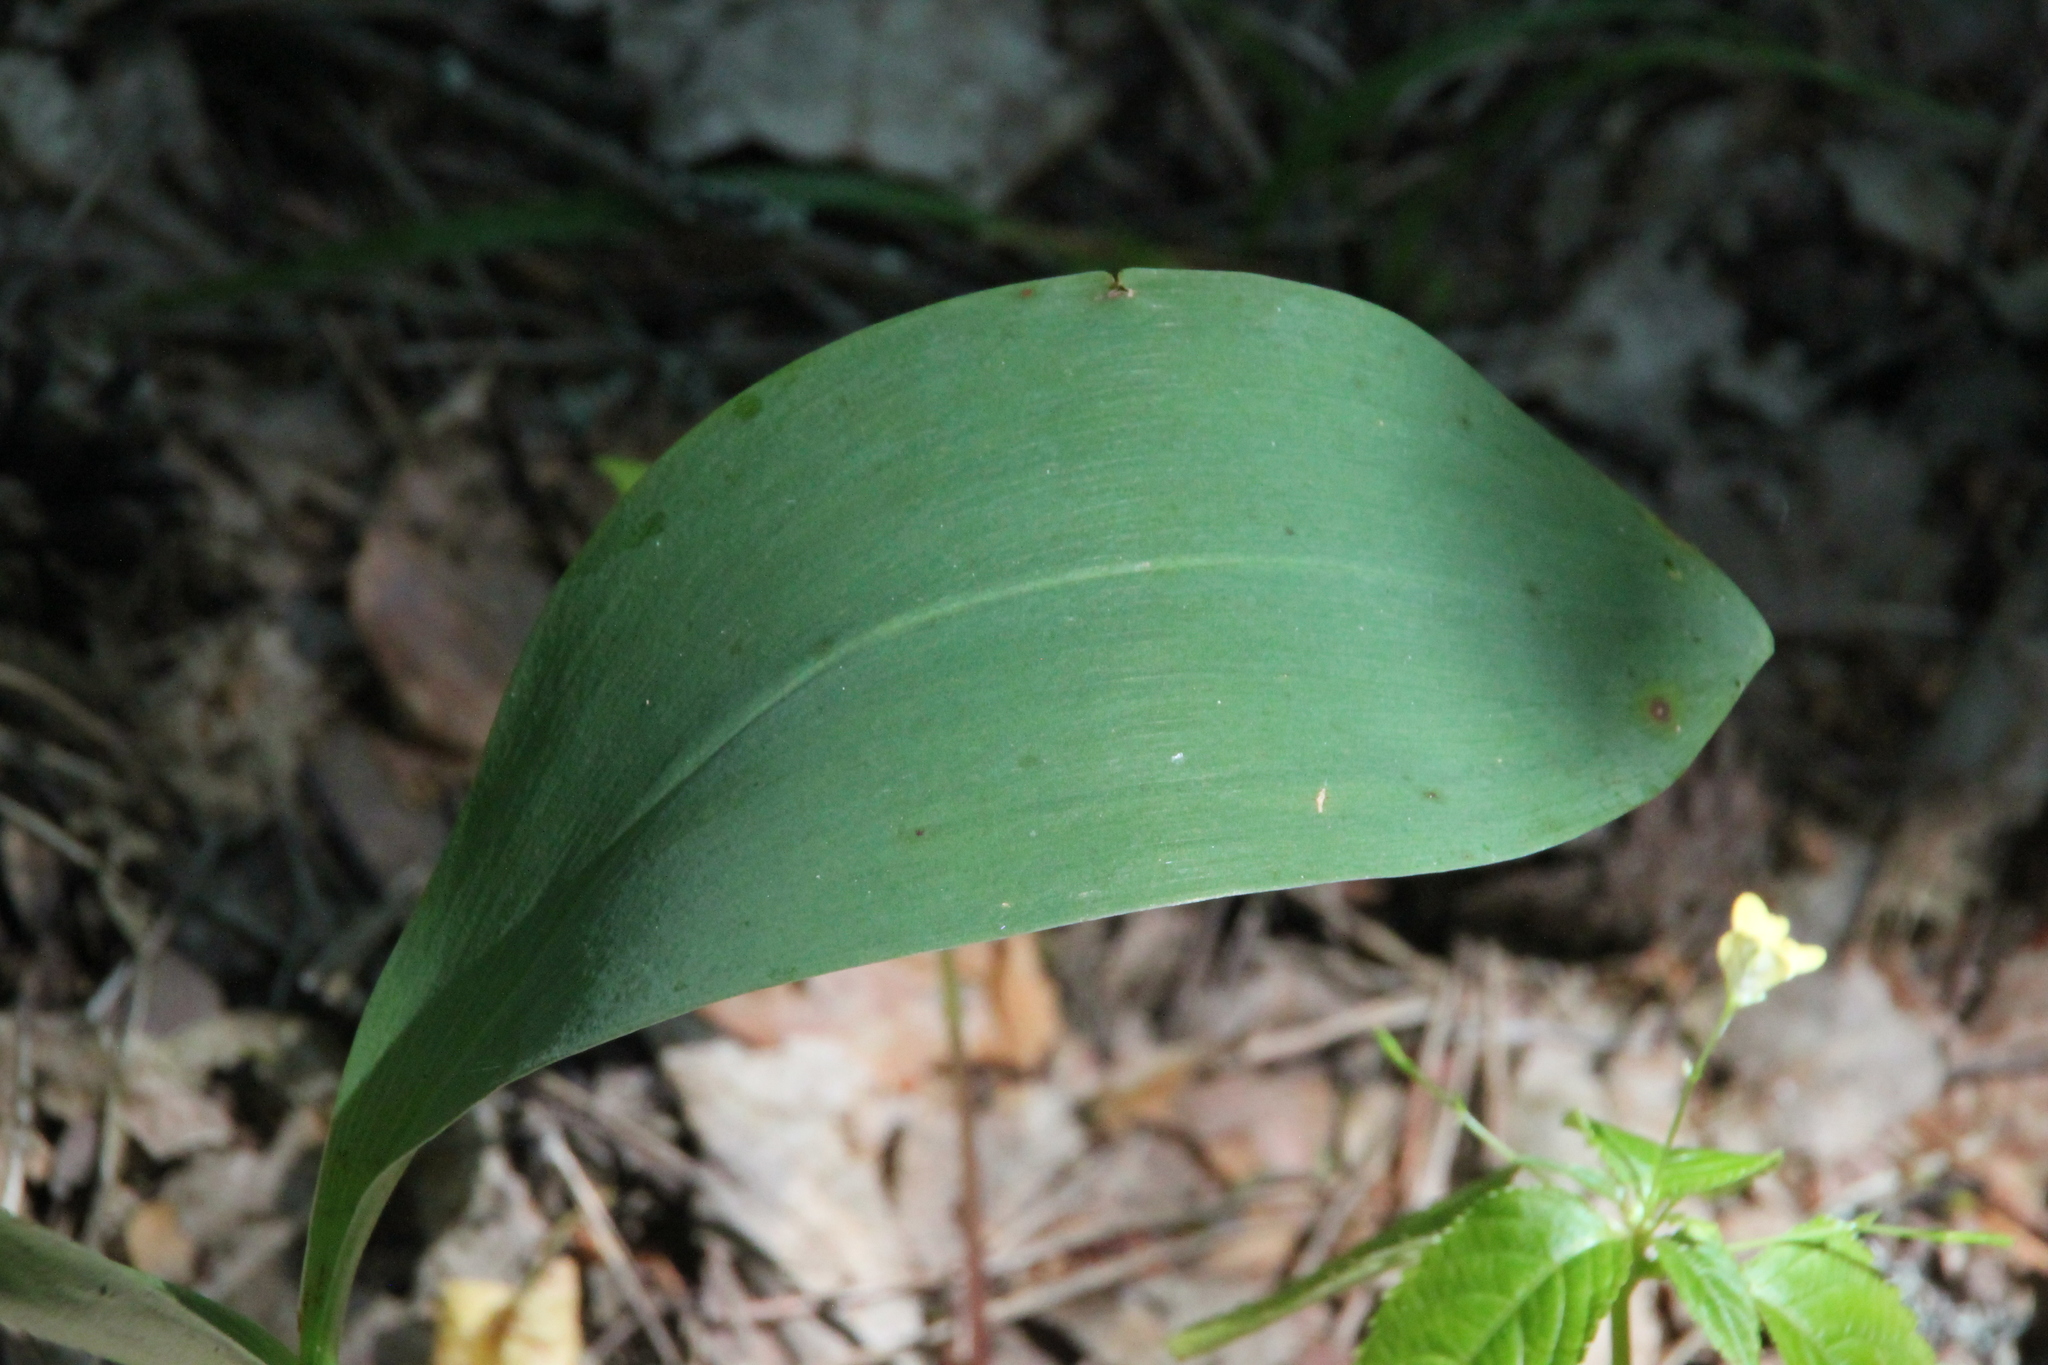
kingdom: Plantae
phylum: Tracheophyta
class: Liliopsida
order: Asparagales
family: Asparagaceae
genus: Convallaria
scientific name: Convallaria majalis
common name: Lily-of-the-valley
